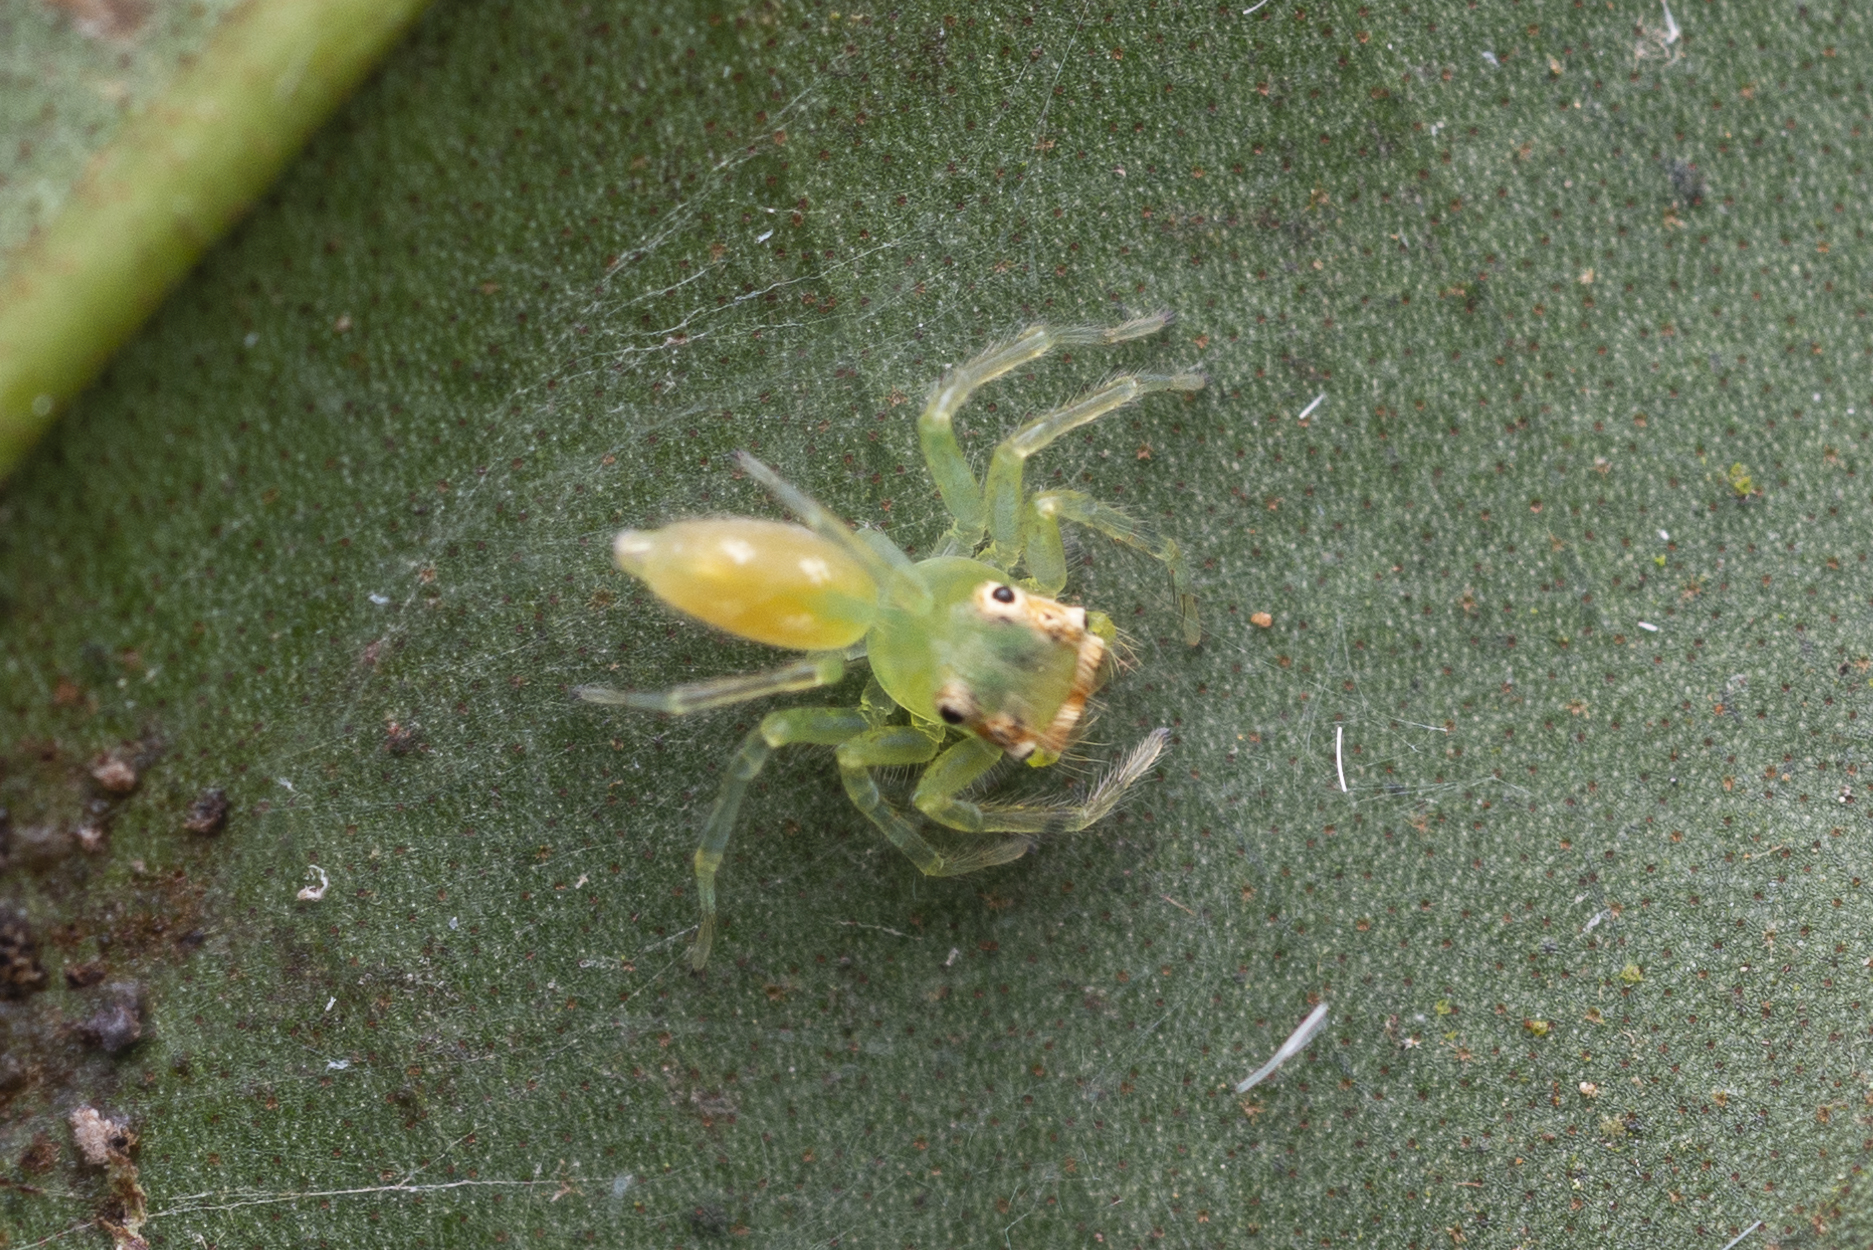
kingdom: Animalia
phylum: Arthropoda
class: Arachnida
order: Araneae
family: Salticidae
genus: Epeus
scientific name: Epeus glorius
